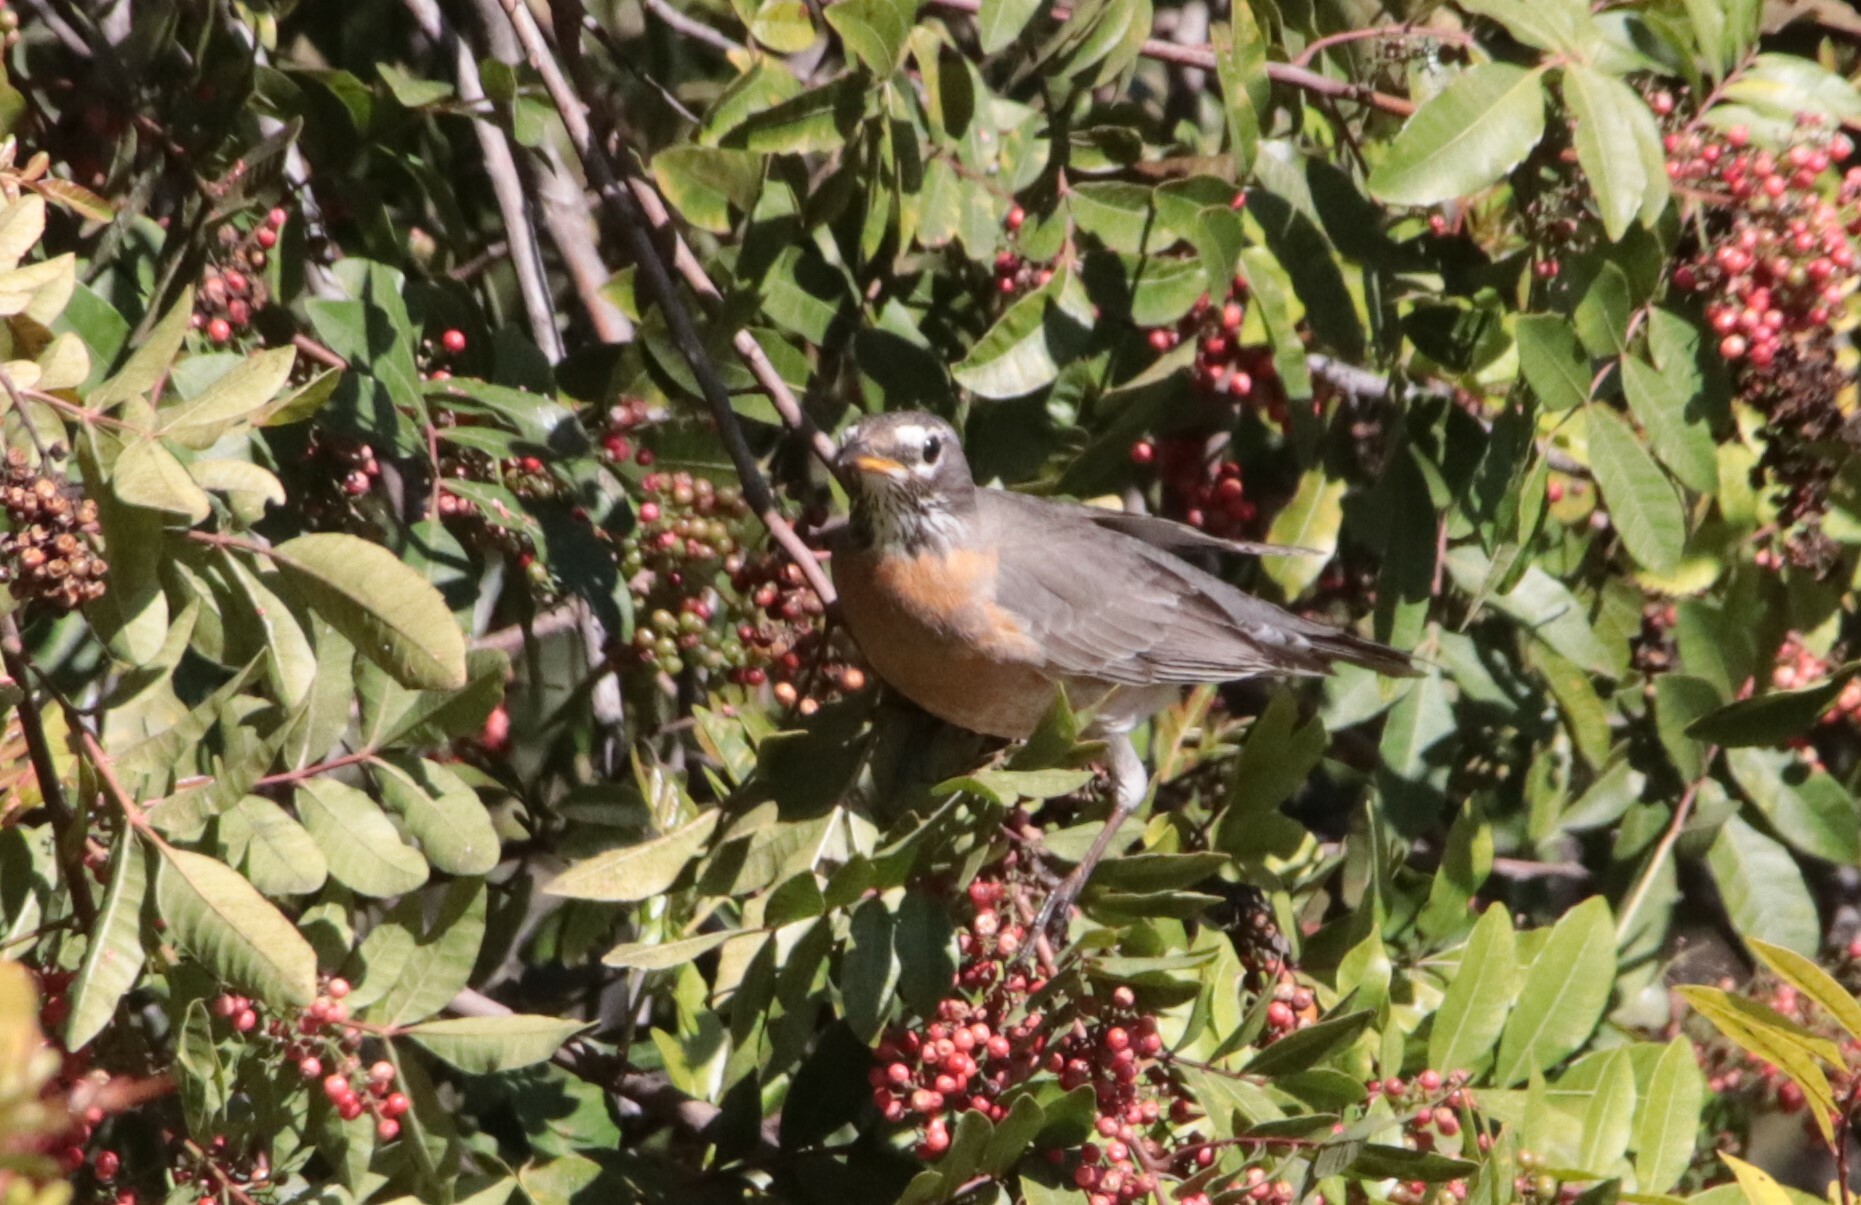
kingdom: Animalia
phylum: Chordata
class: Aves
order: Passeriformes
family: Turdidae
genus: Turdus
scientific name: Turdus migratorius
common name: American robin
